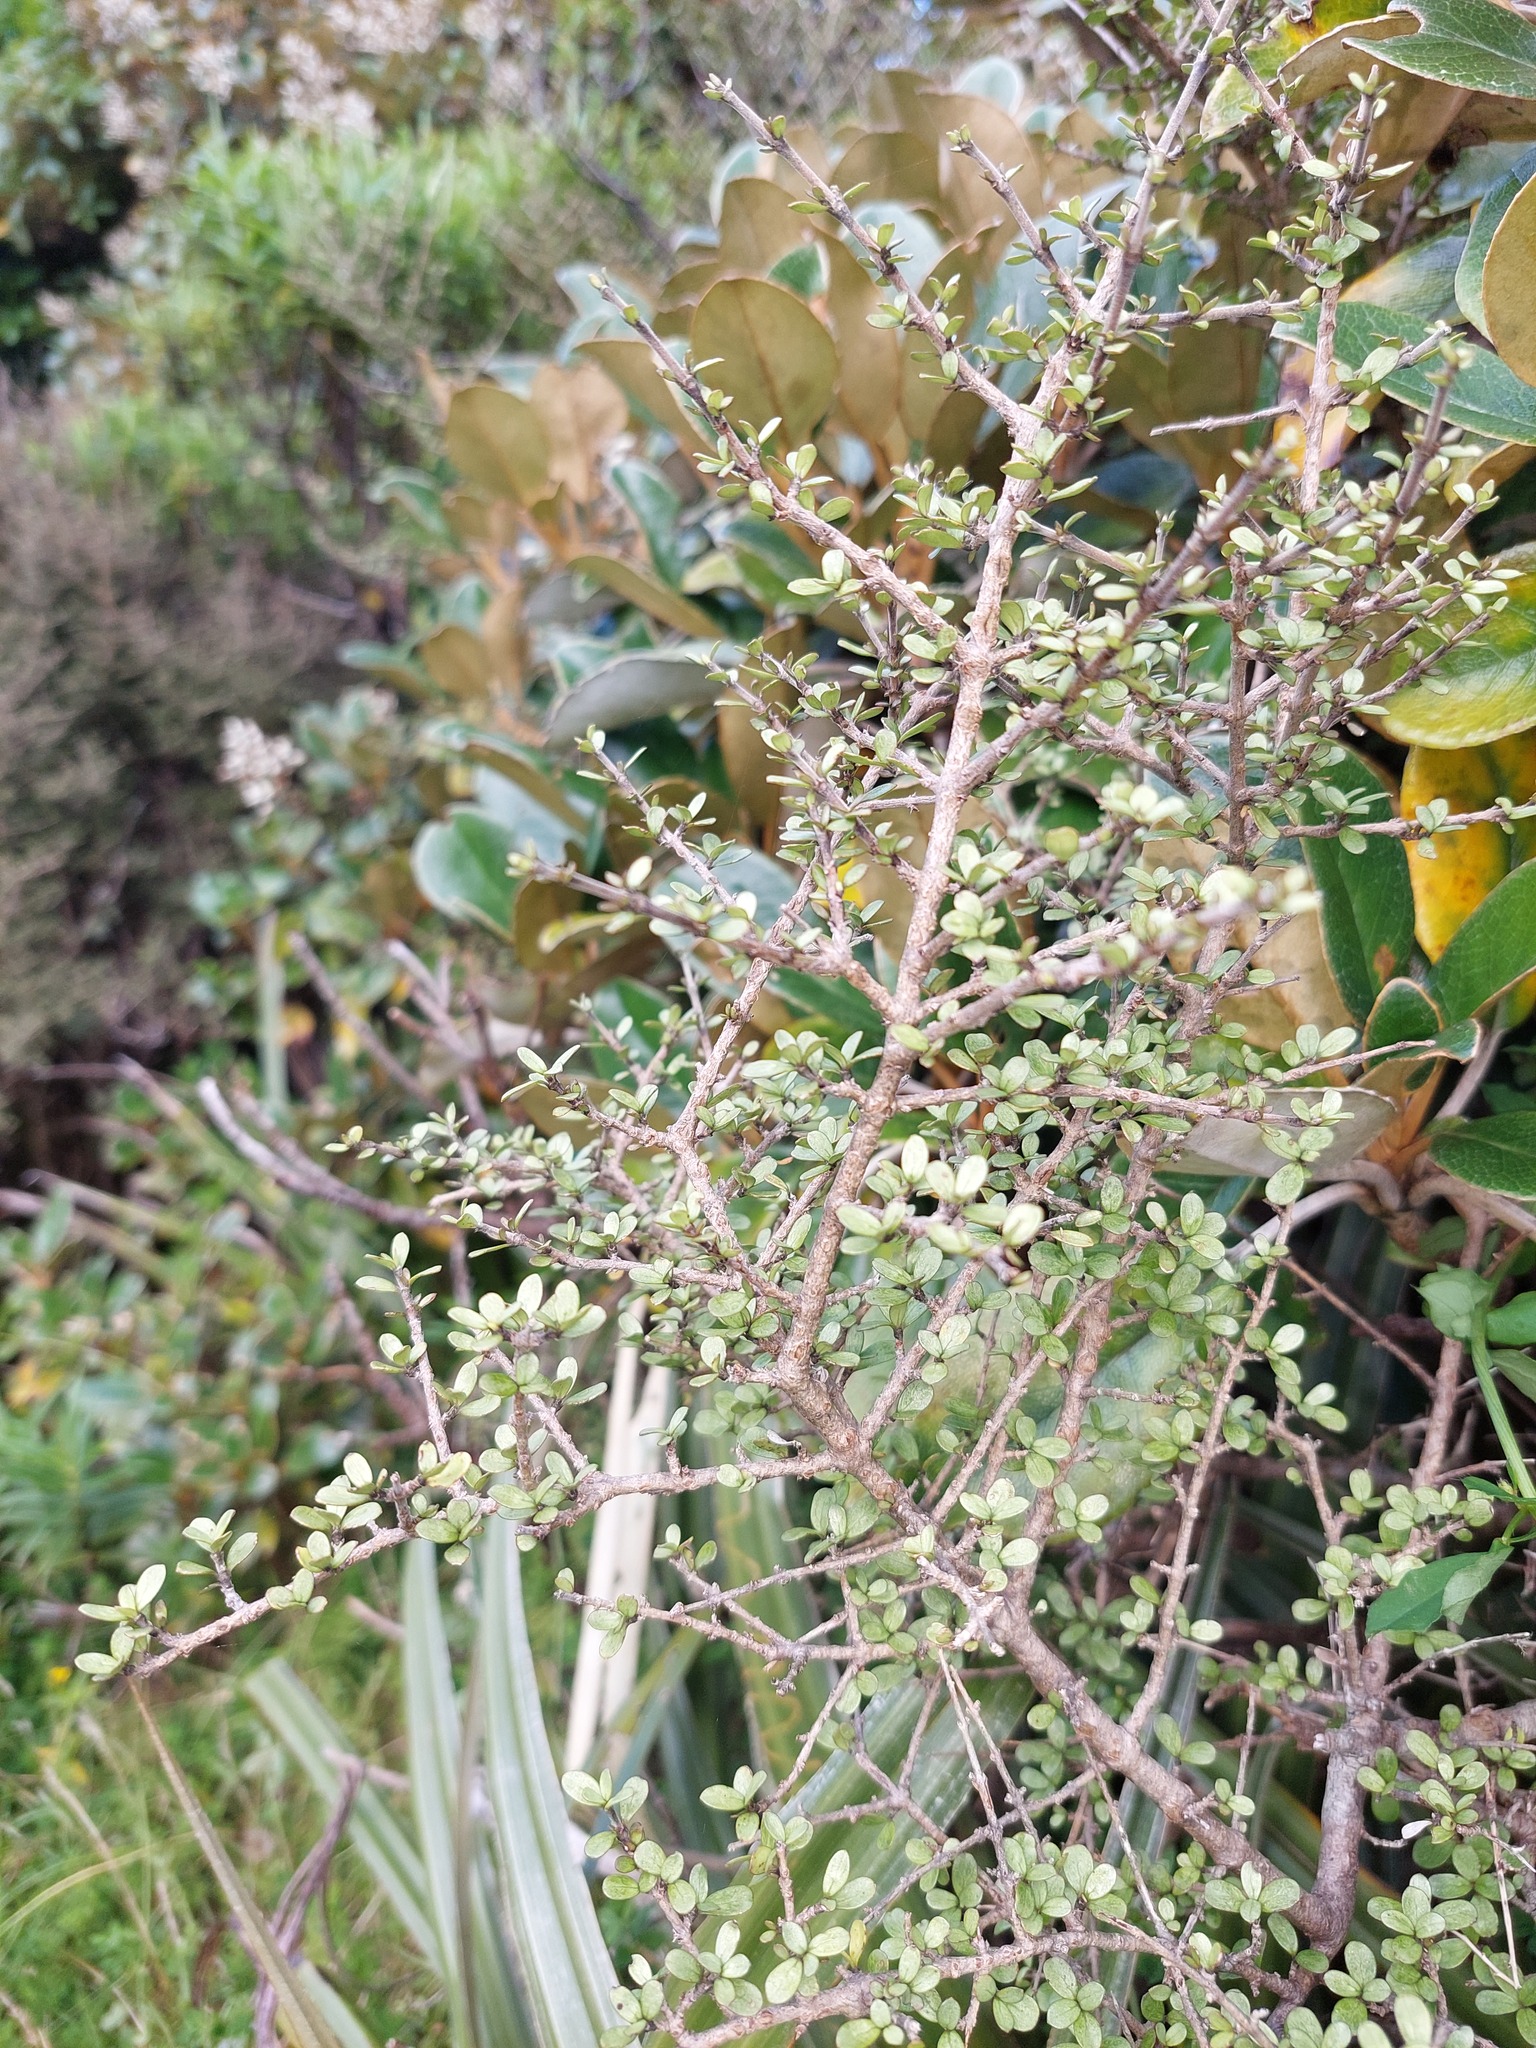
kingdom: Plantae
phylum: Tracheophyta
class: Magnoliopsida
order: Gentianales
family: Rubiaceae
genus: Coprosma
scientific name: Coprosma dumosa
